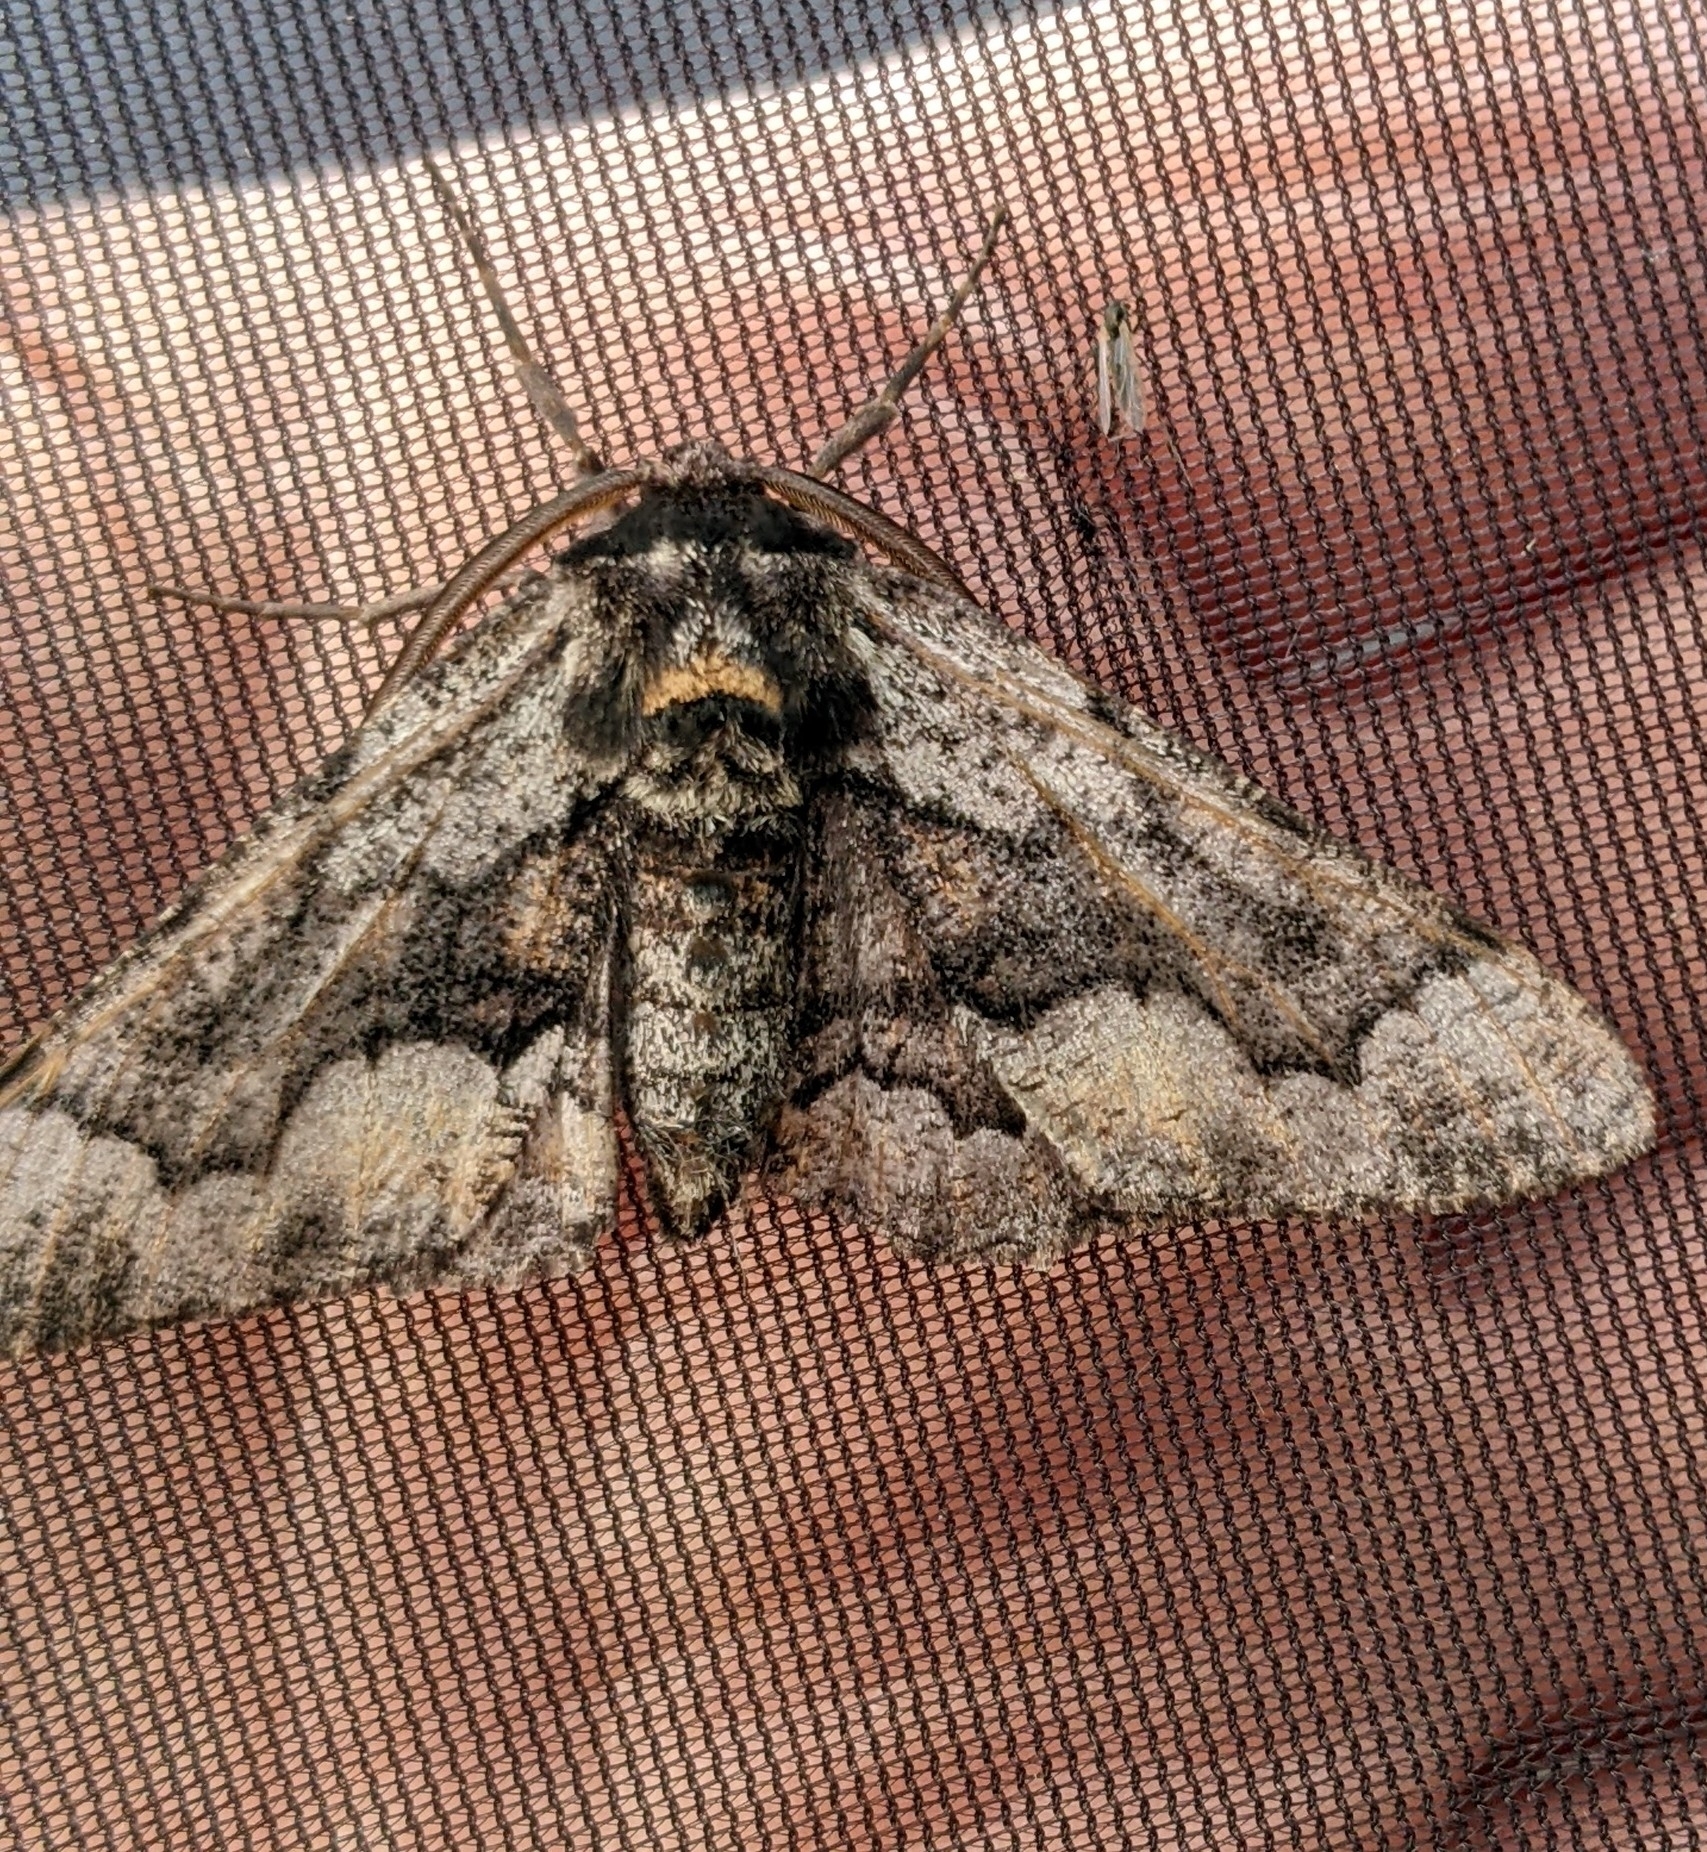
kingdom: Animalia
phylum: Arthropoda
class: Insecta
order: Lepidoptera
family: Geometridae
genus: Phaeoura
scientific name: Phaeoura mexicanaria
